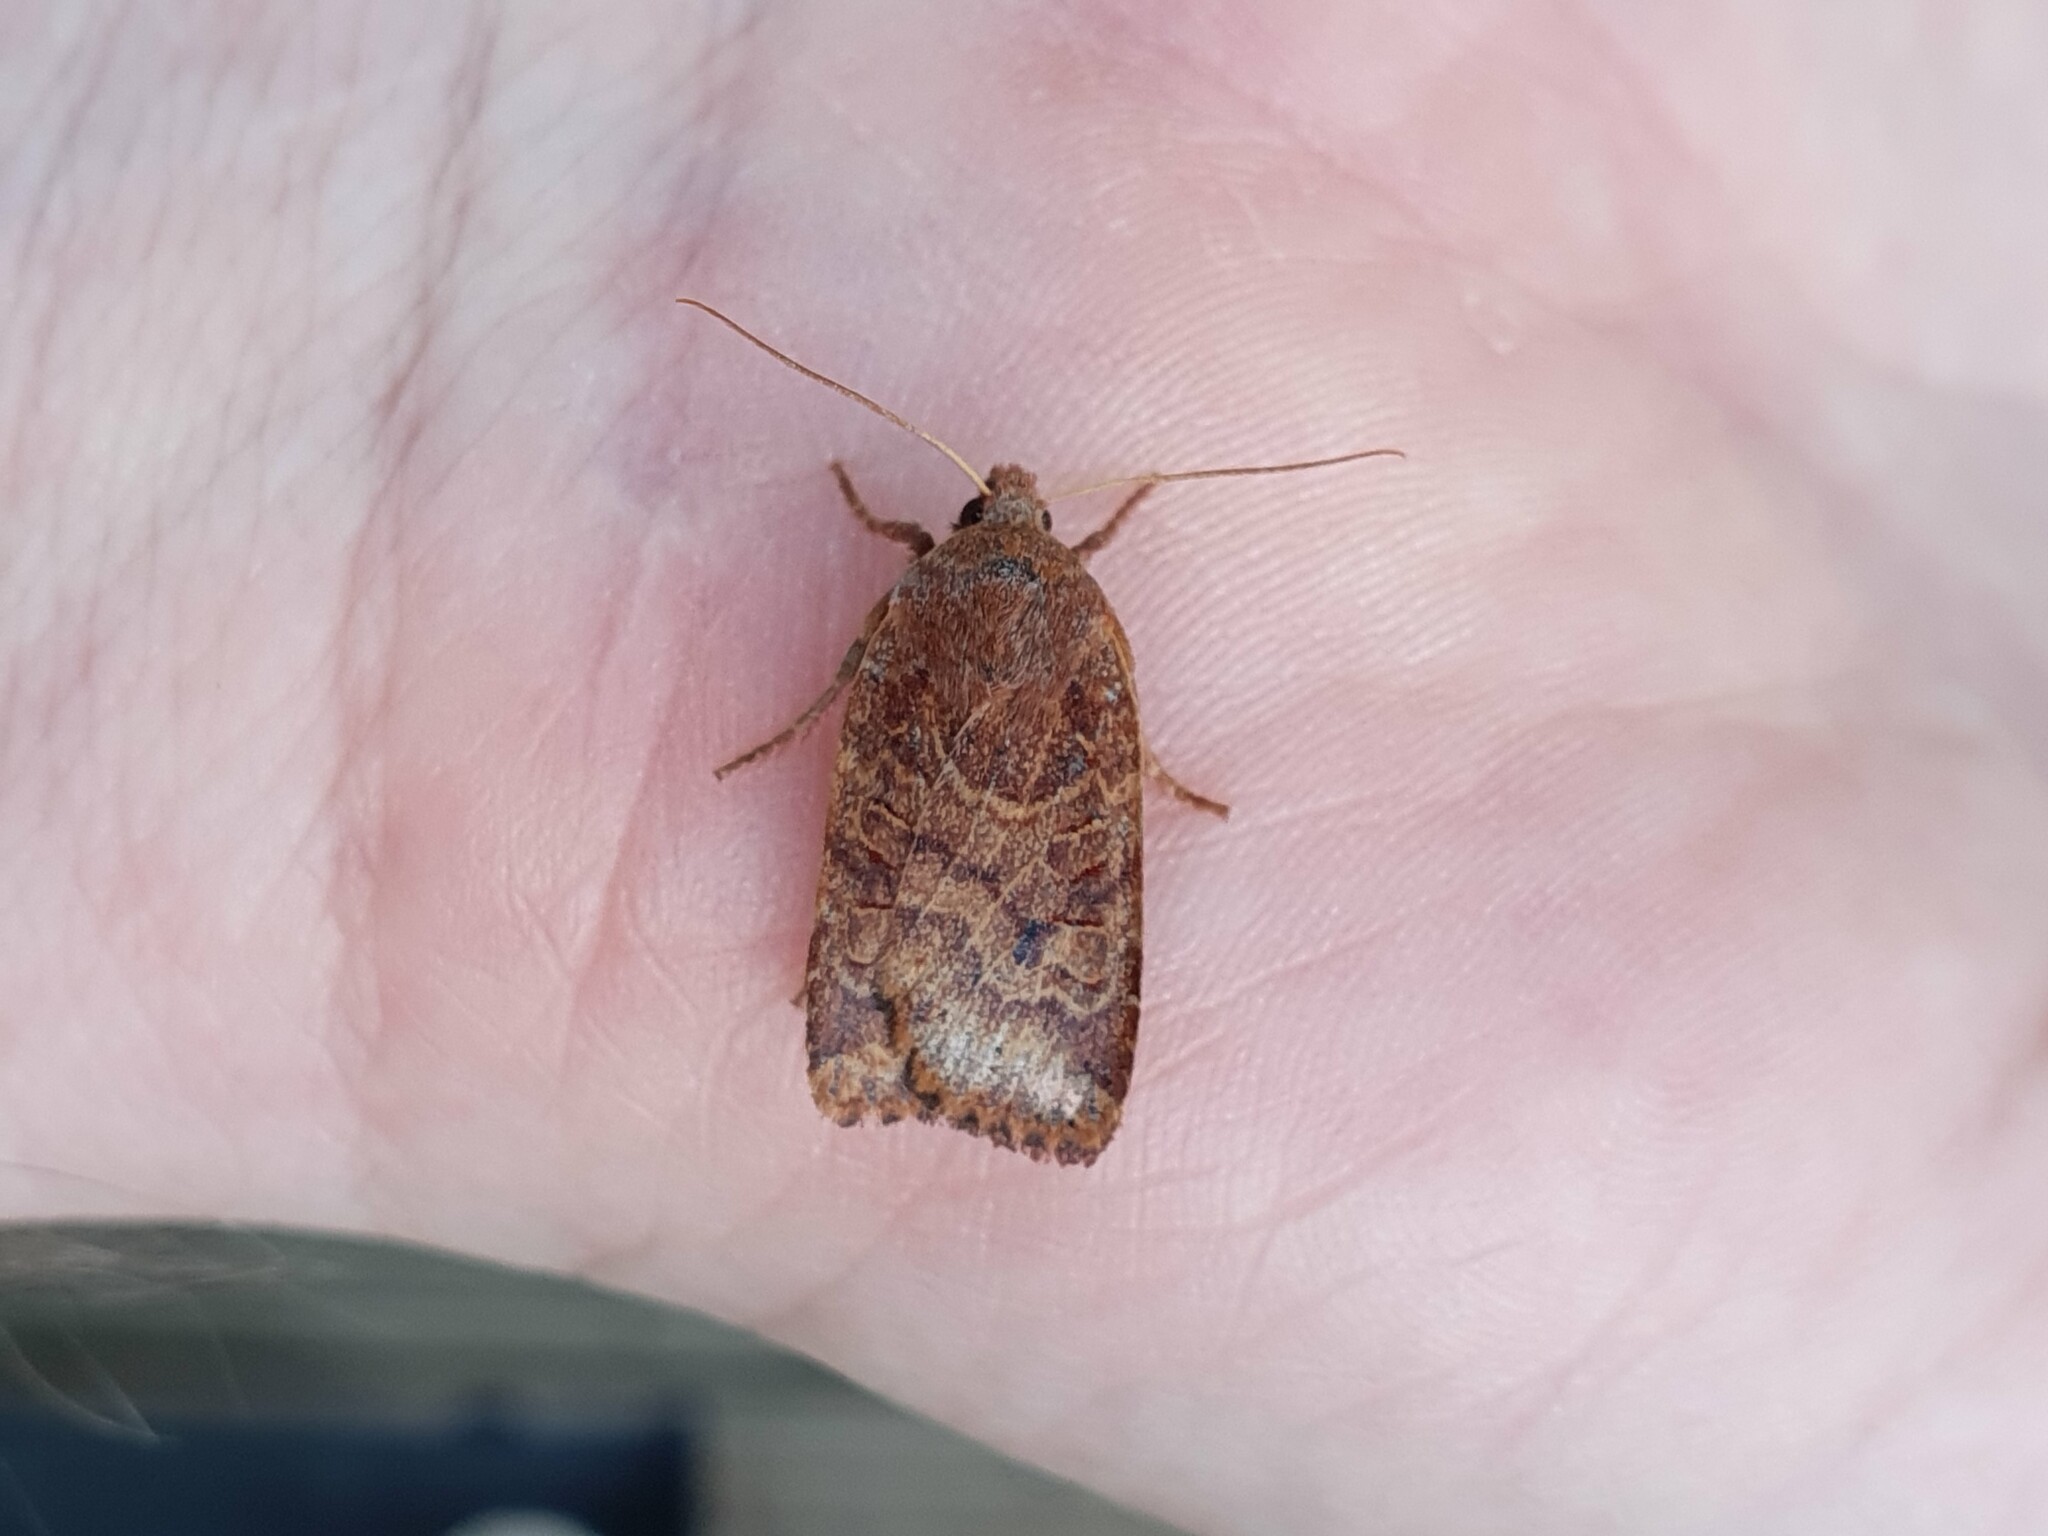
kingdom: Animalia
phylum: Arthropoda
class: Insecta
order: Lepidoptera
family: Noctuidae
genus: Conistra
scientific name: Conistra vaccinii
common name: Chestnut
